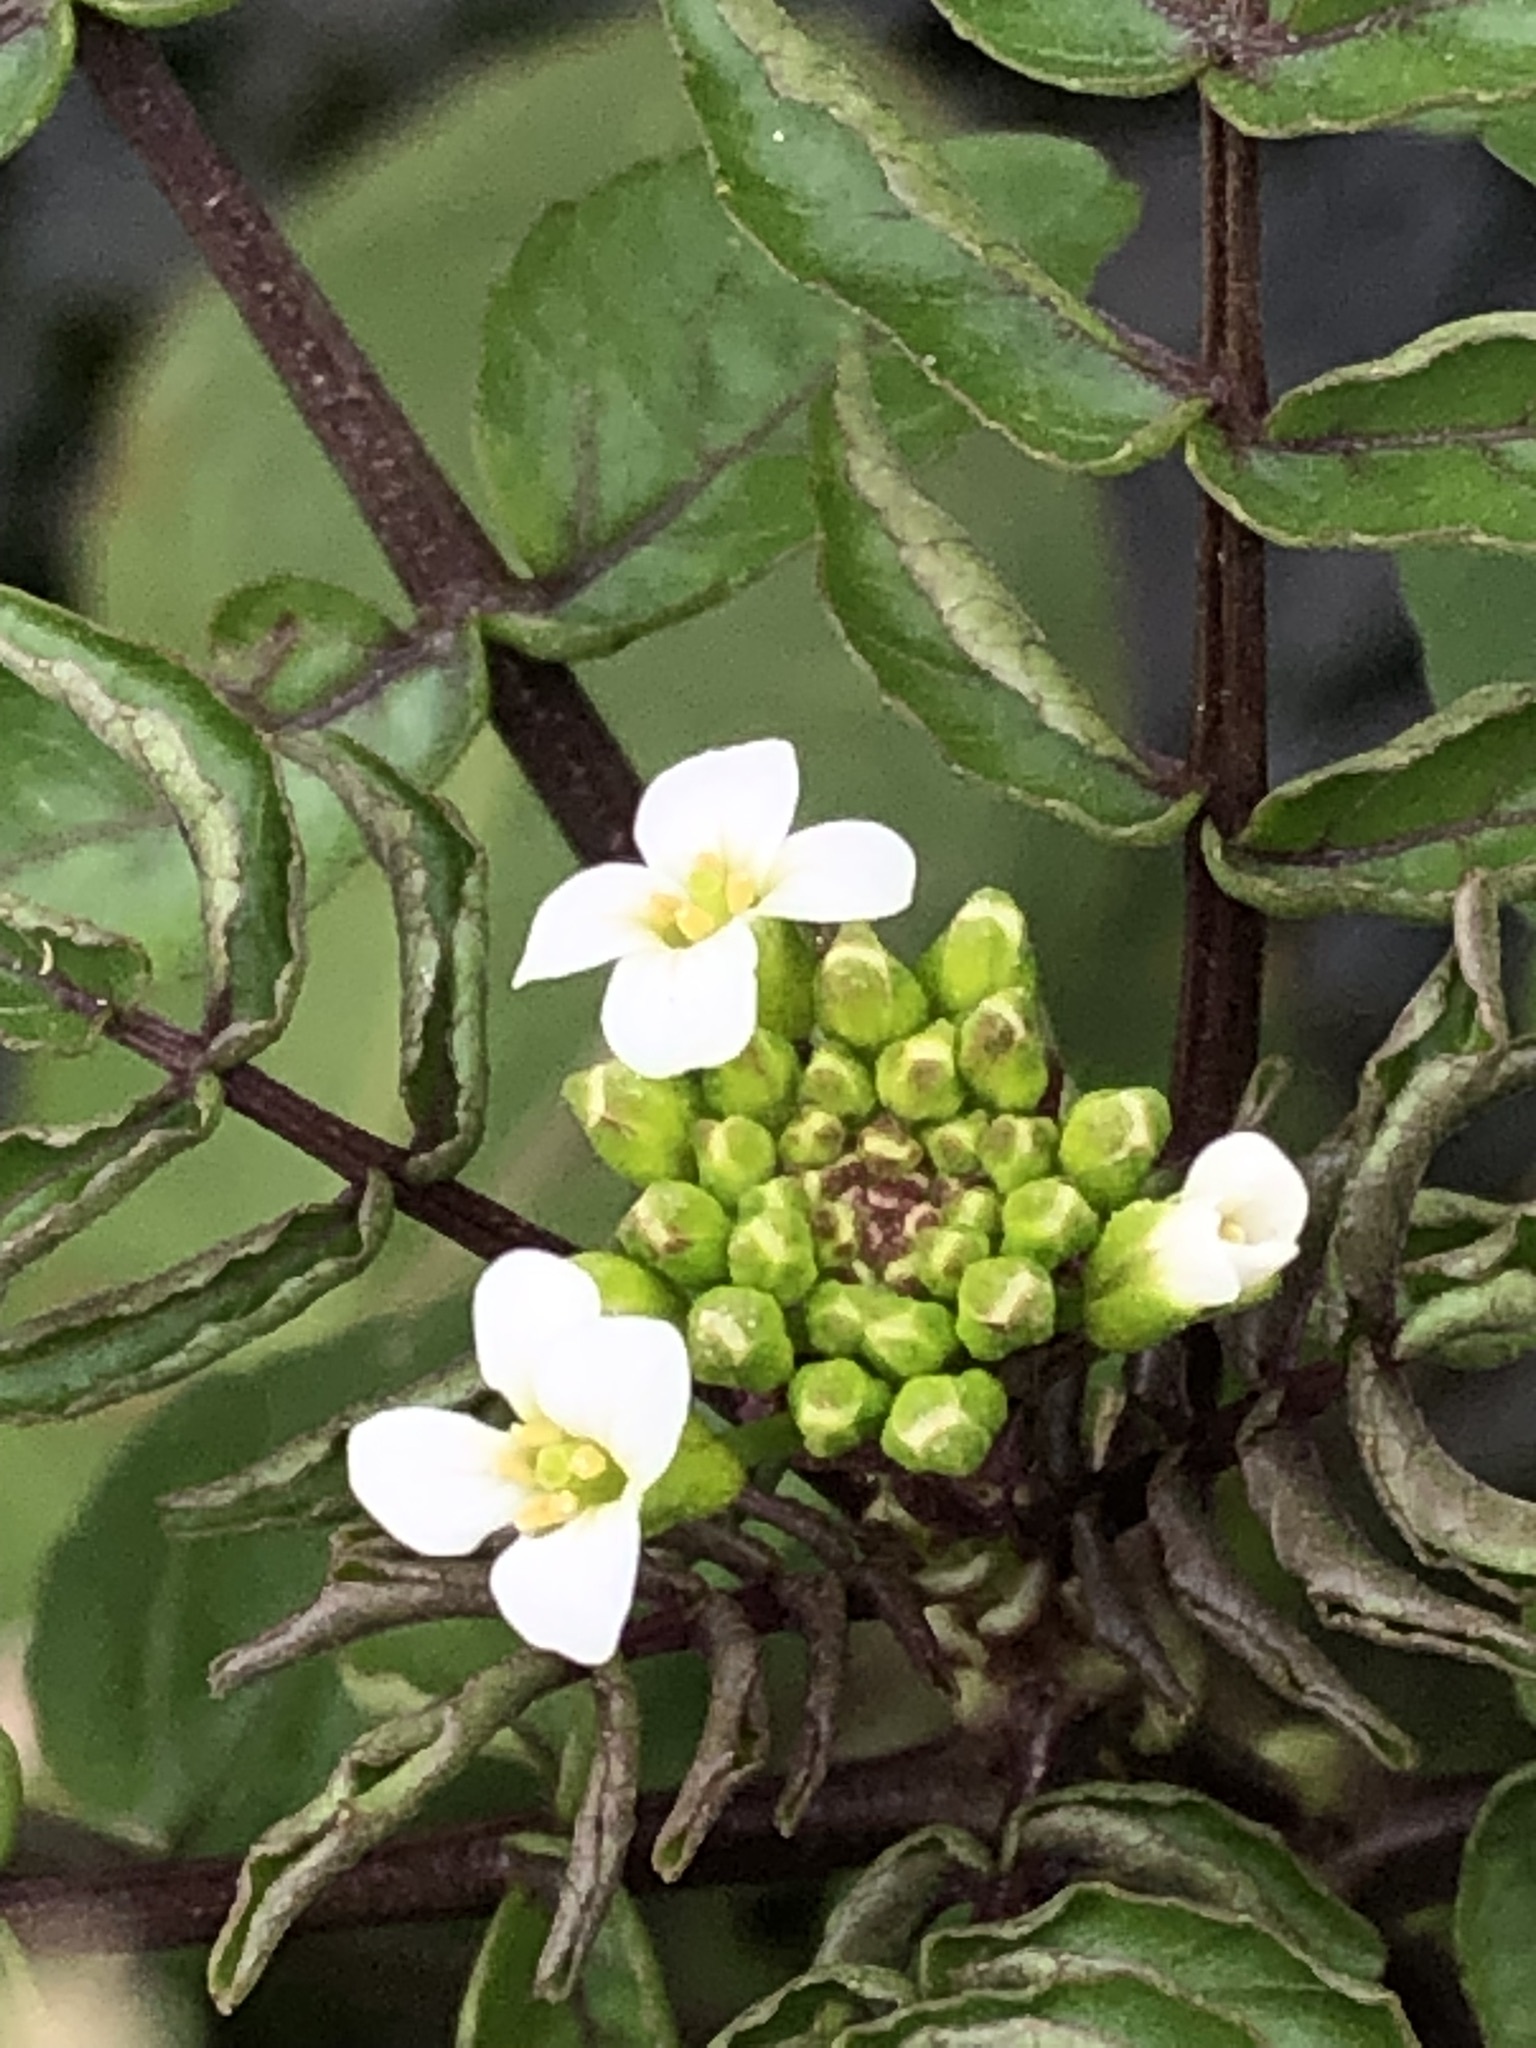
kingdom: Plantae
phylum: Tracheophyta
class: Magnoliopsida
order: Brassicales
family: Brassicaceae
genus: Nasturtium
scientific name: Nasturtium officinale
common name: Watercress
